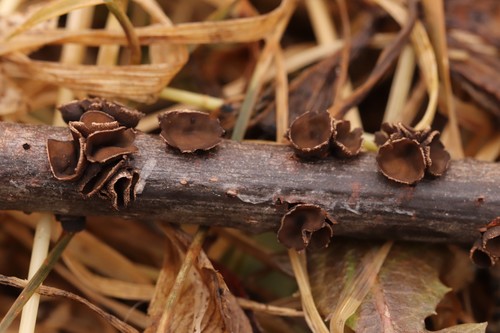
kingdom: Fungi
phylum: Ascomycota
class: Leotiomycetes
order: Helotiales
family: Sclerotiniaceae
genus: Sclerencoelia
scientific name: Sclerencoelia fascicularis
